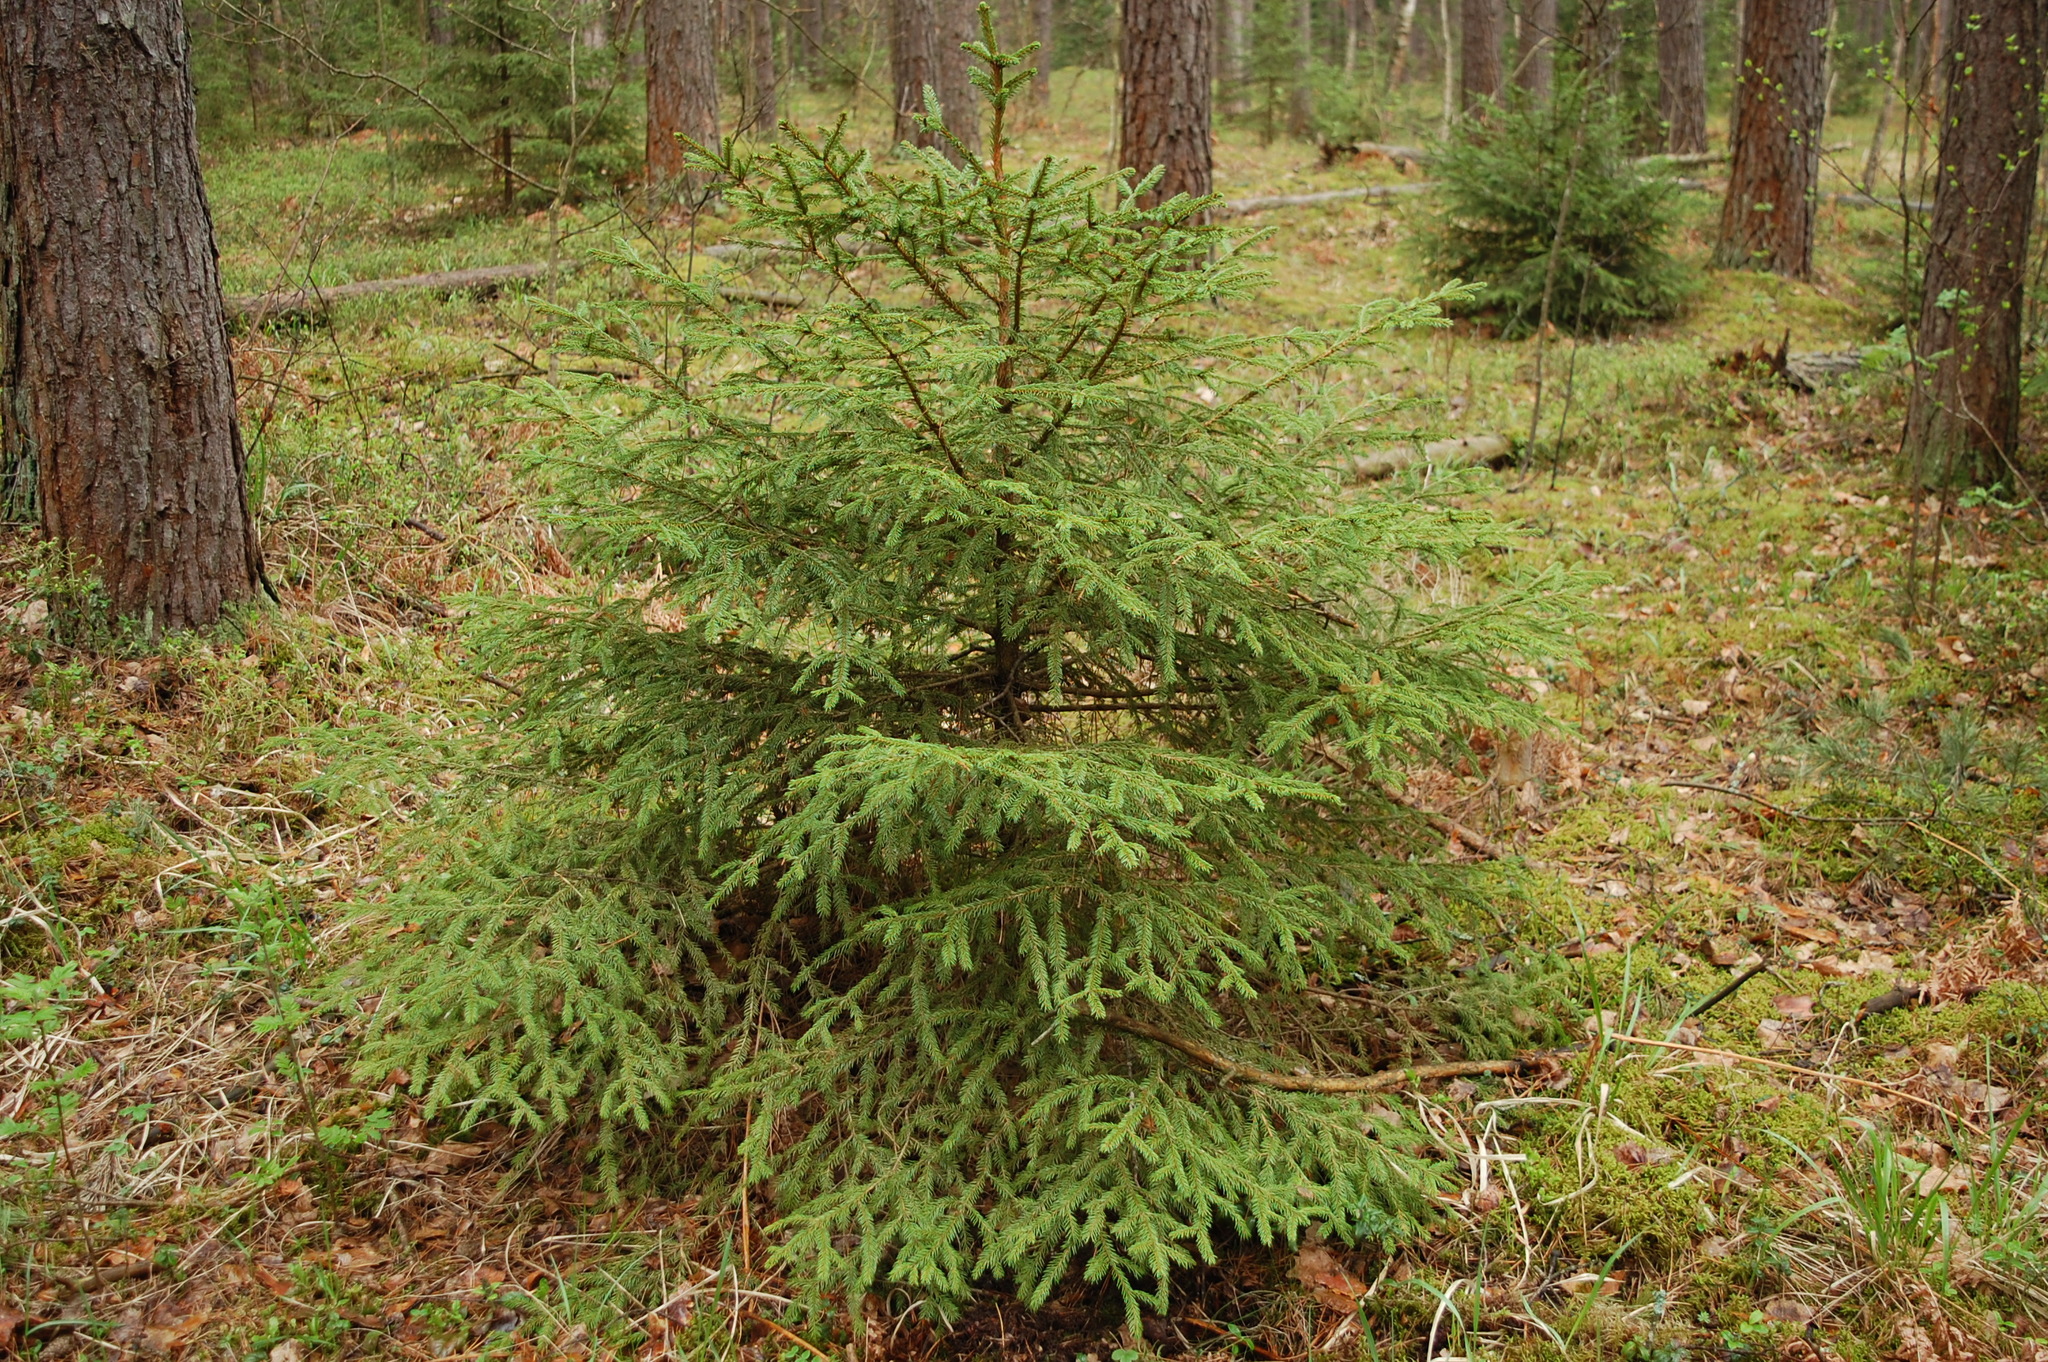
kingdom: Plantae
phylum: Tracheophyta
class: Pinopsida
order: Pinales
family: Pinaceae
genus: Picea
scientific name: Picea abies
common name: Norway spruce
